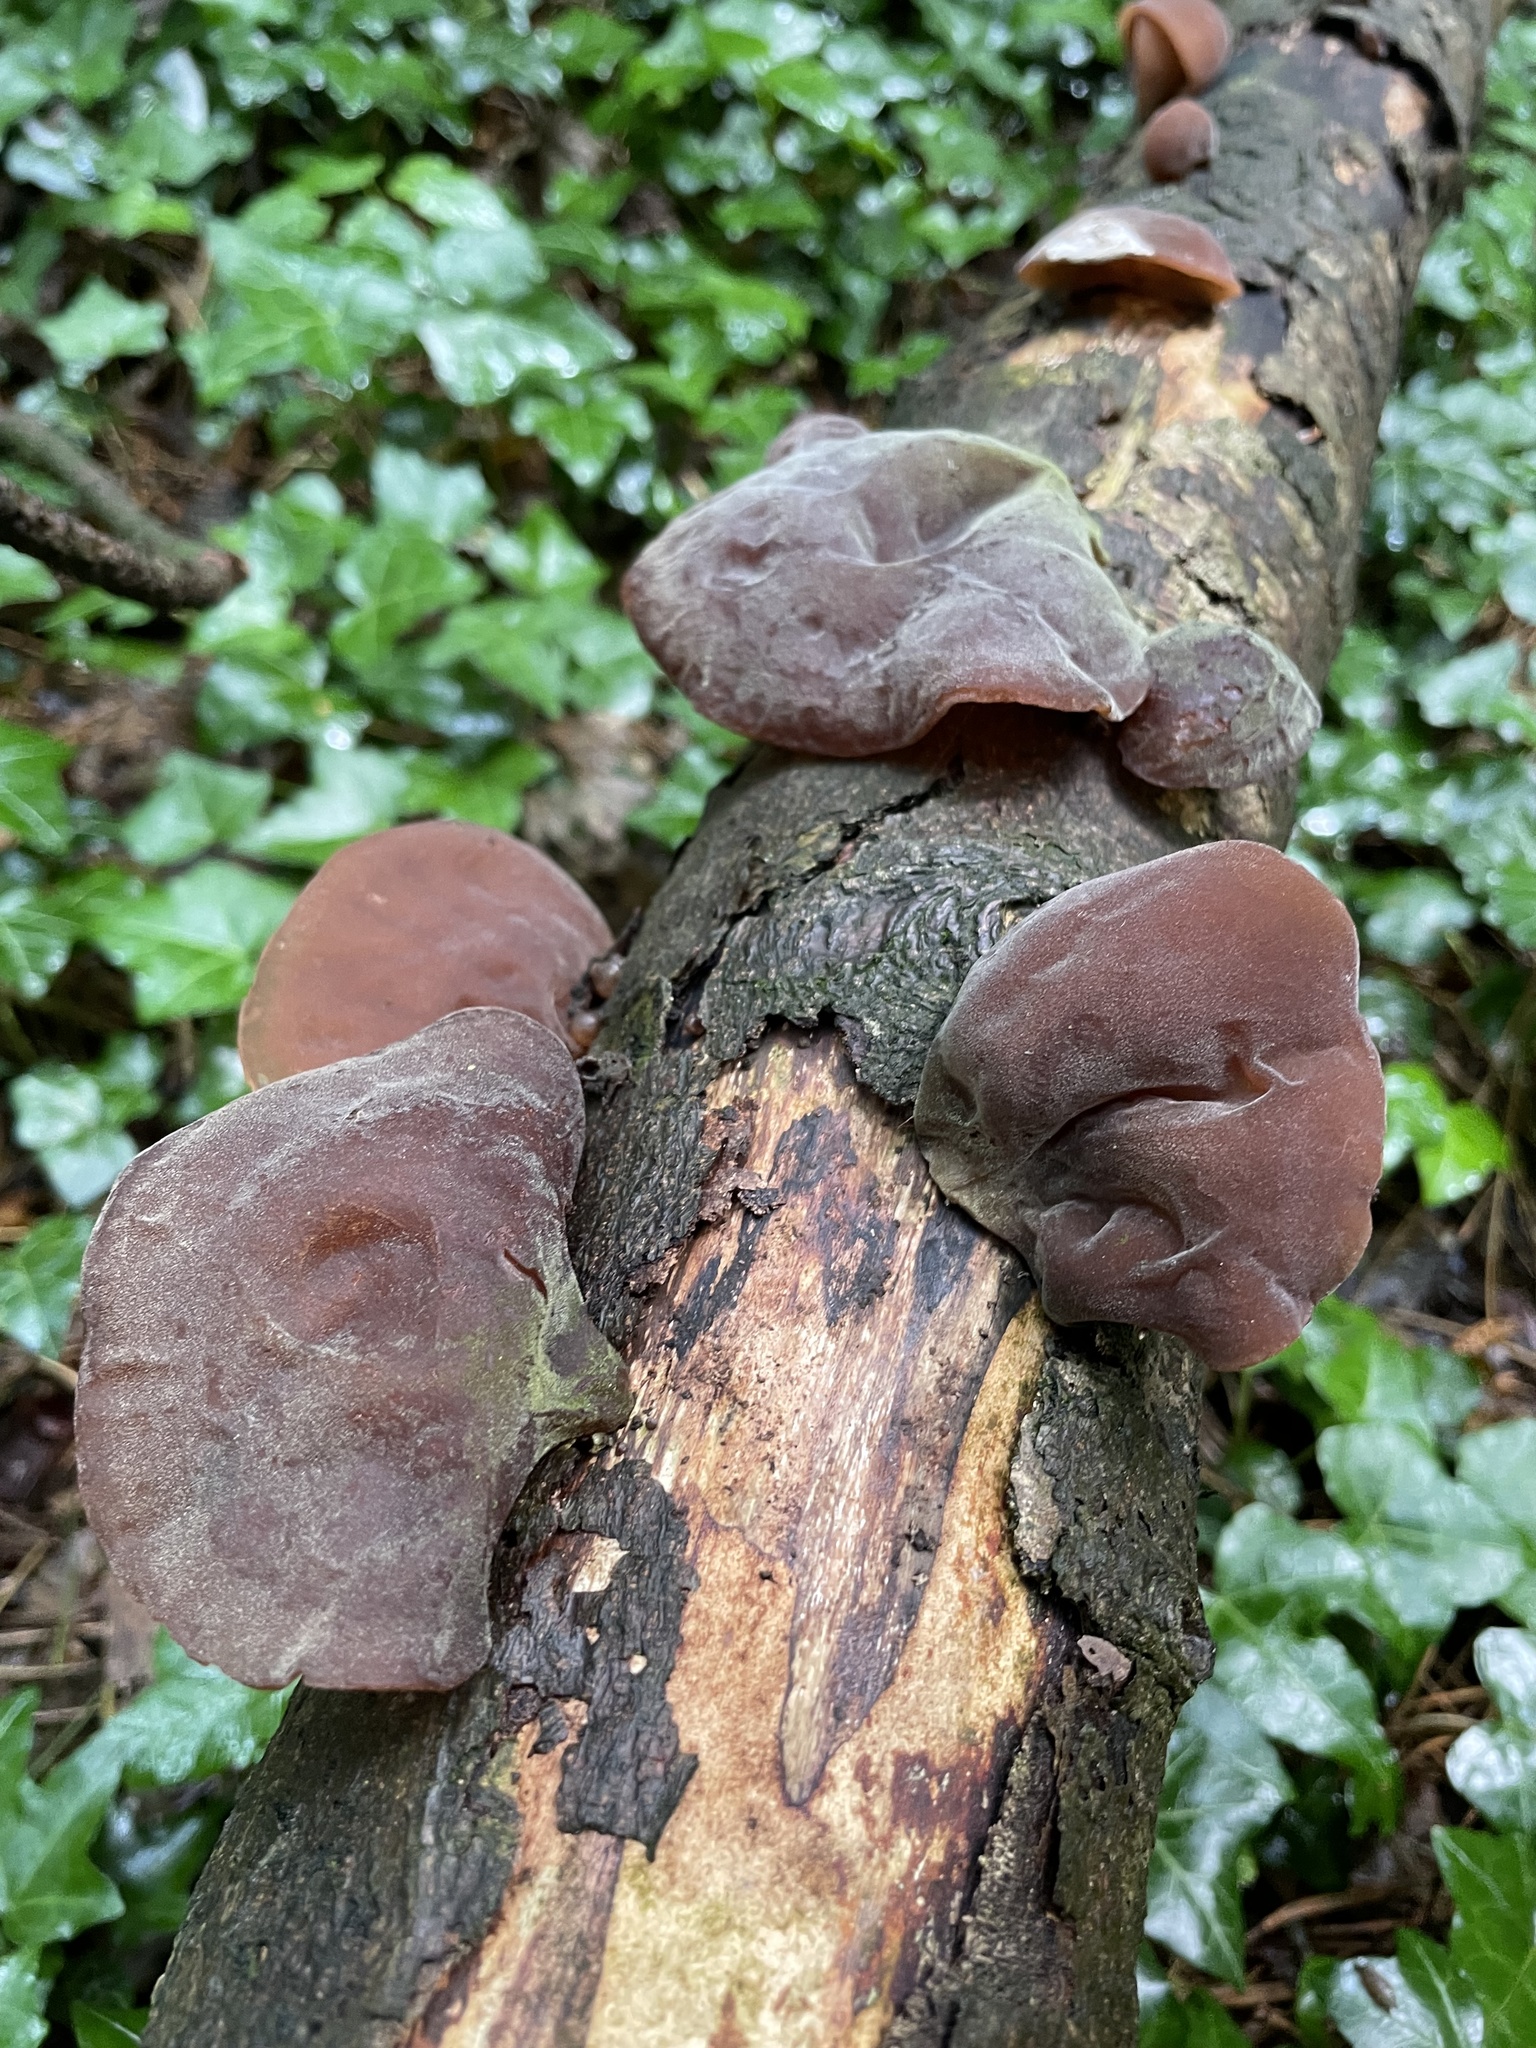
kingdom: Fungi
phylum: Basidiomycota
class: Agaricomycetes
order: Auriculariales
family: Auriculariaceae
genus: Auricularia
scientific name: Auricularia auricula-judae
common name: Jelly ear
